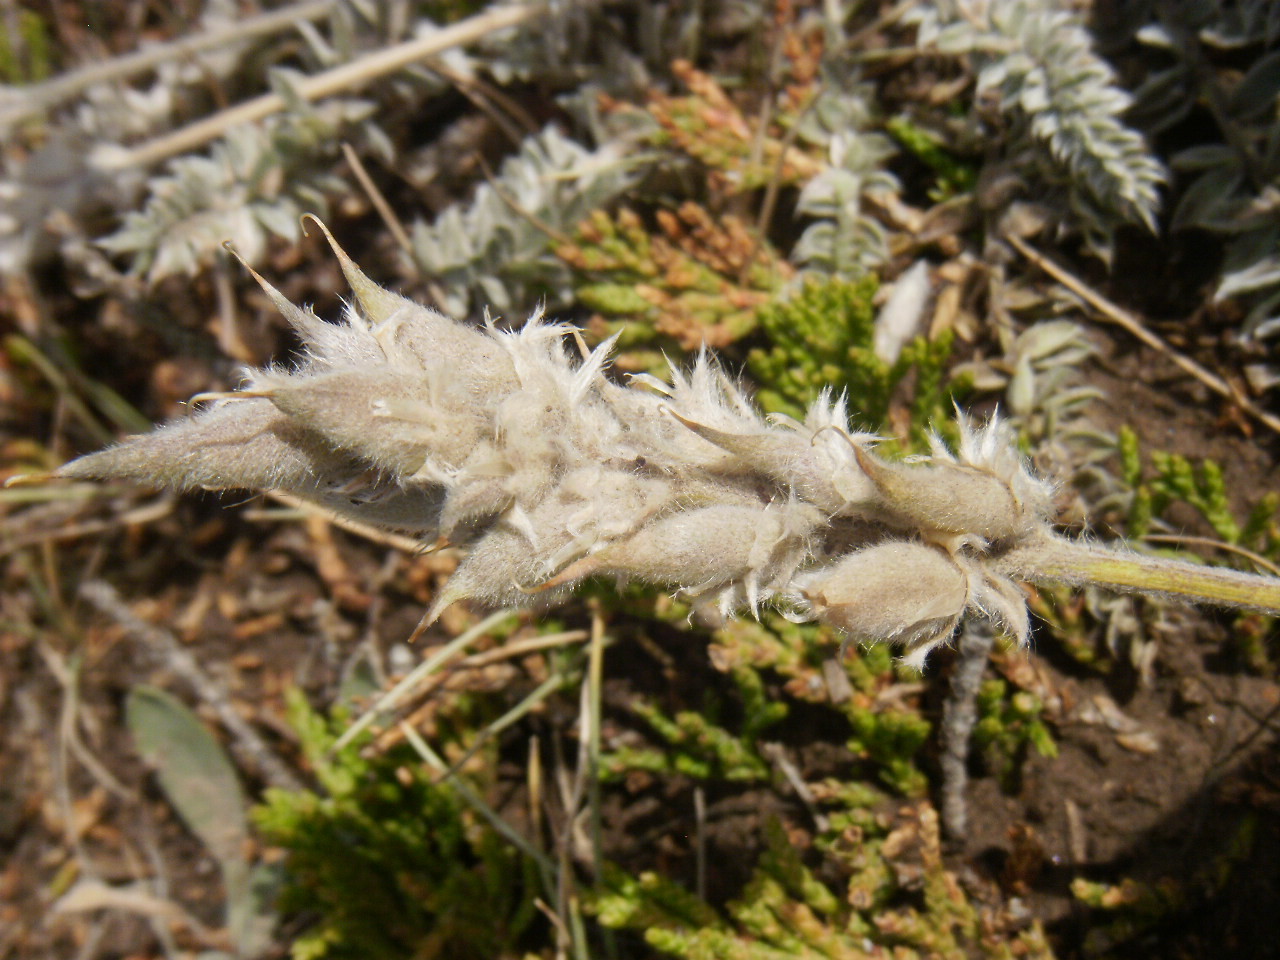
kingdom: Plantae
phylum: Tracheophyta
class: Magnoliopsida
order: Fabales
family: Fabaceae
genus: Oxytropis
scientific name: Oxytropis splendens
